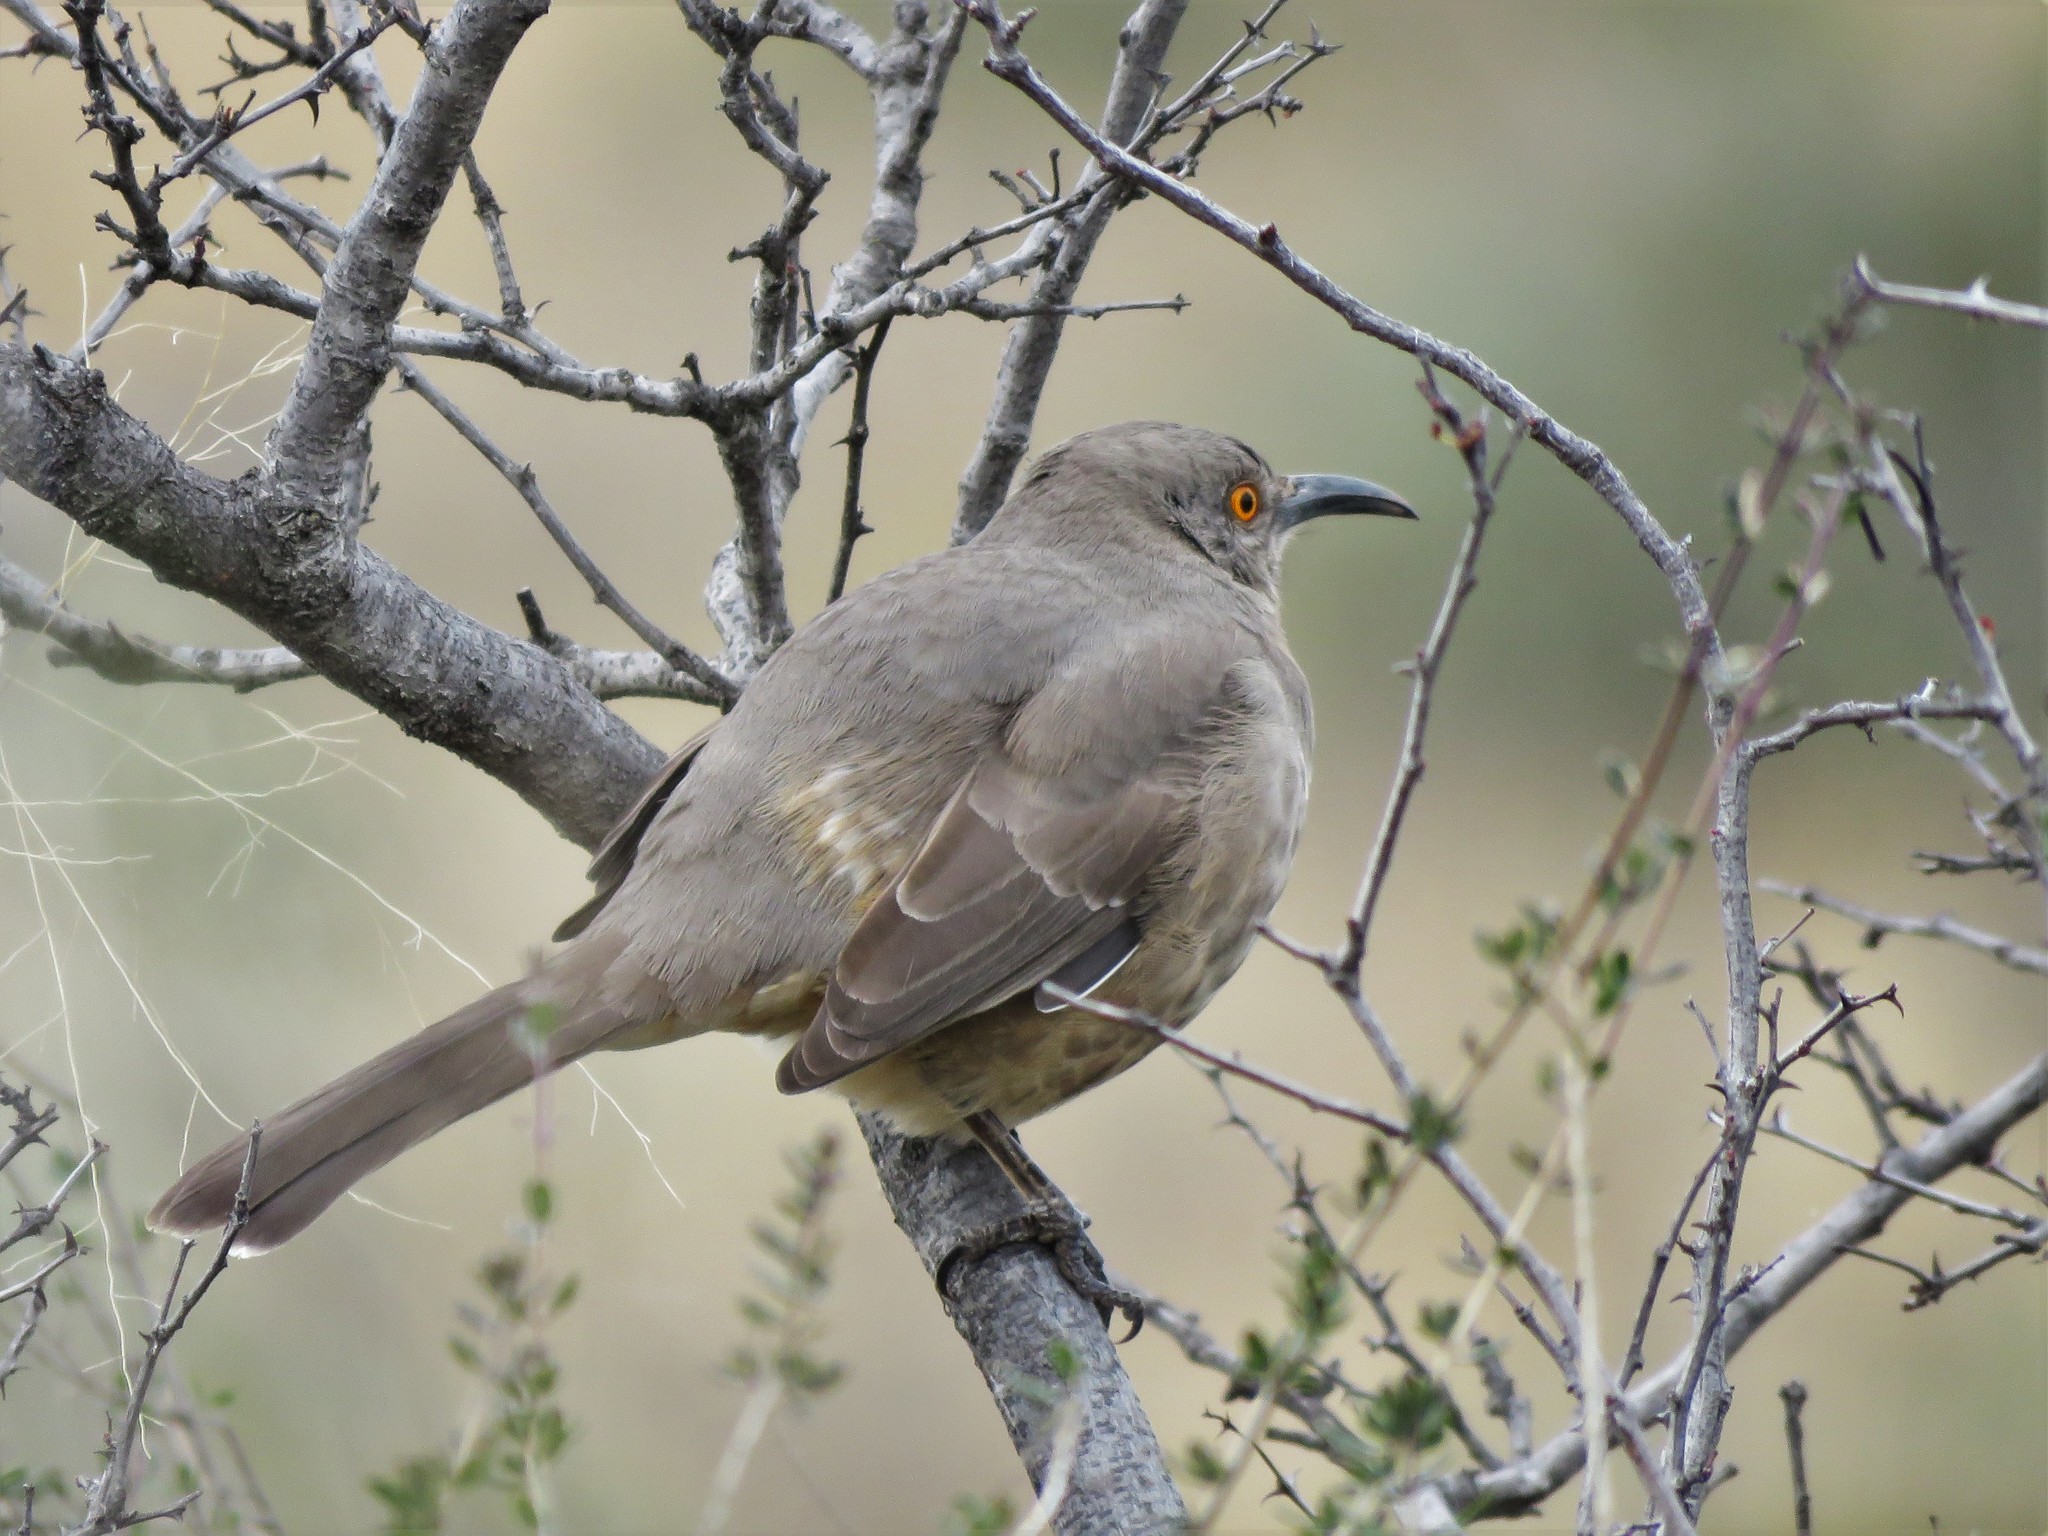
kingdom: Animalia
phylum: Chordata
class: Aves
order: Passeriformes
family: Mimidae
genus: Toxostoma
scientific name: Toxostoma curvirostre
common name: Curve-billed thrasher
